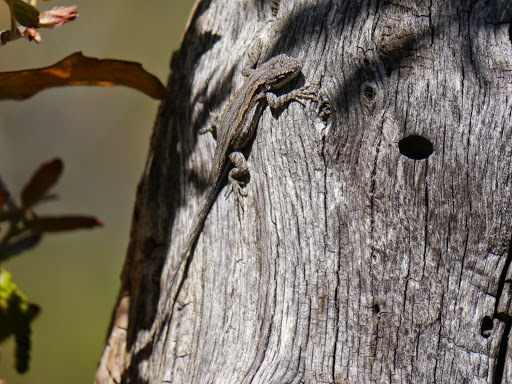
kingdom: Animalia
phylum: Chordata
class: Squamata
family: Phrynosomatidae
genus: Urosaurus
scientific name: Urosaurus ornatus
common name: Ornate tree lizard
